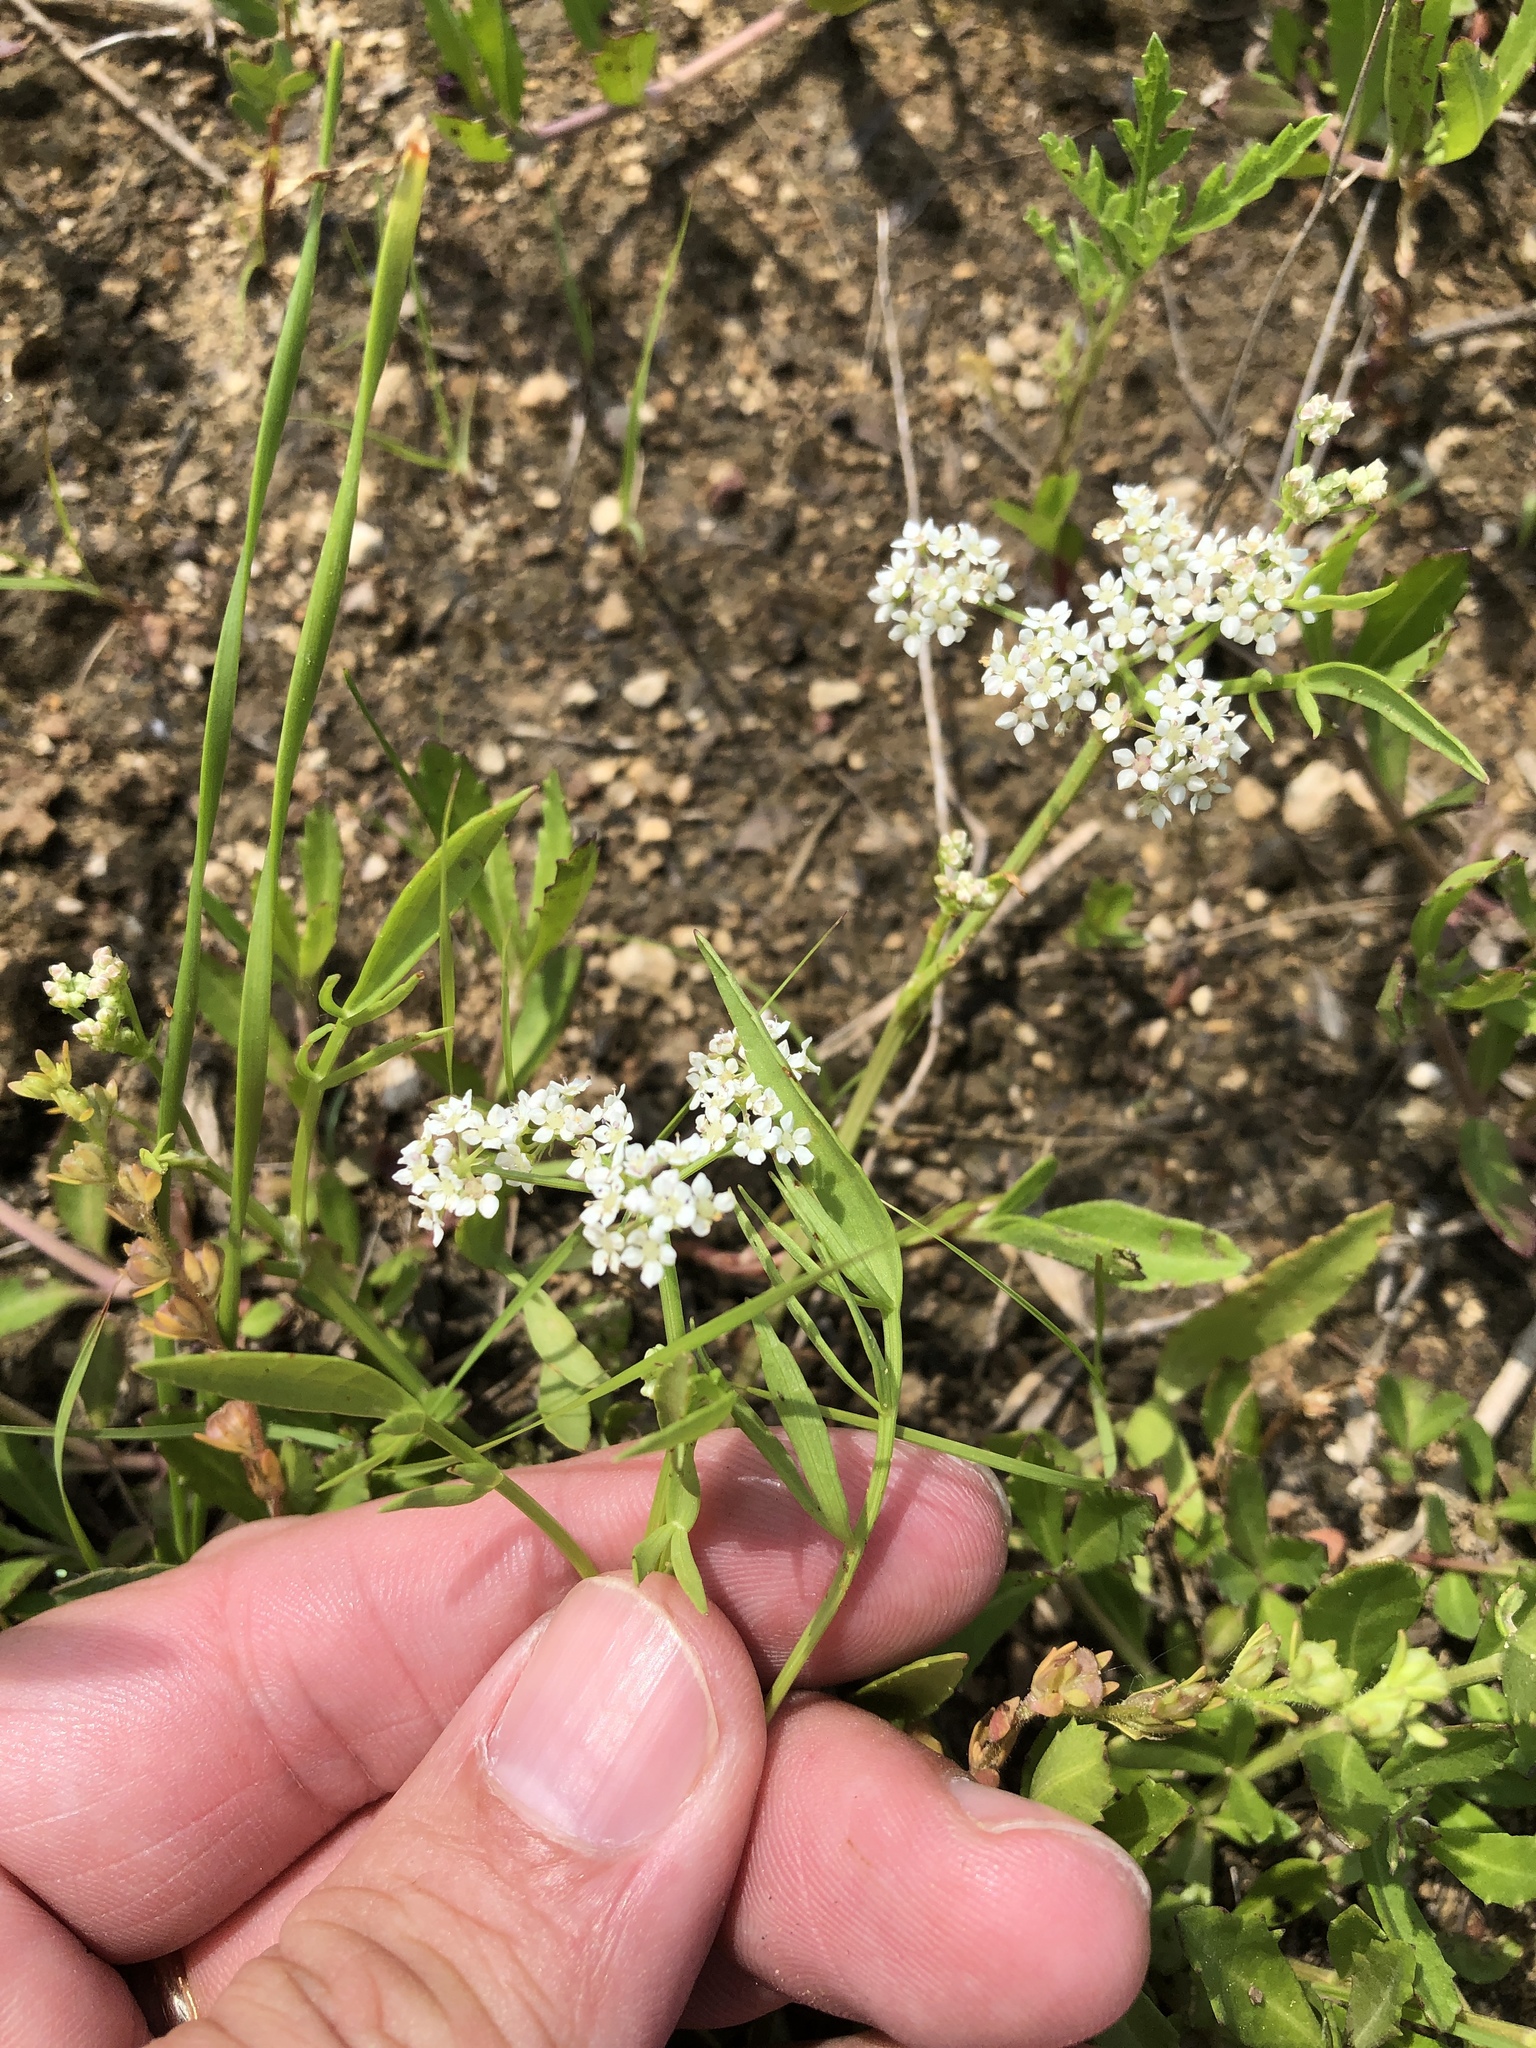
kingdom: Plantae
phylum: Tracheophyta
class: Magnoliopsida
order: Apiales
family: Apiaceae
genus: Limnosciadium
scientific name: Limnosciadium pinnatum
